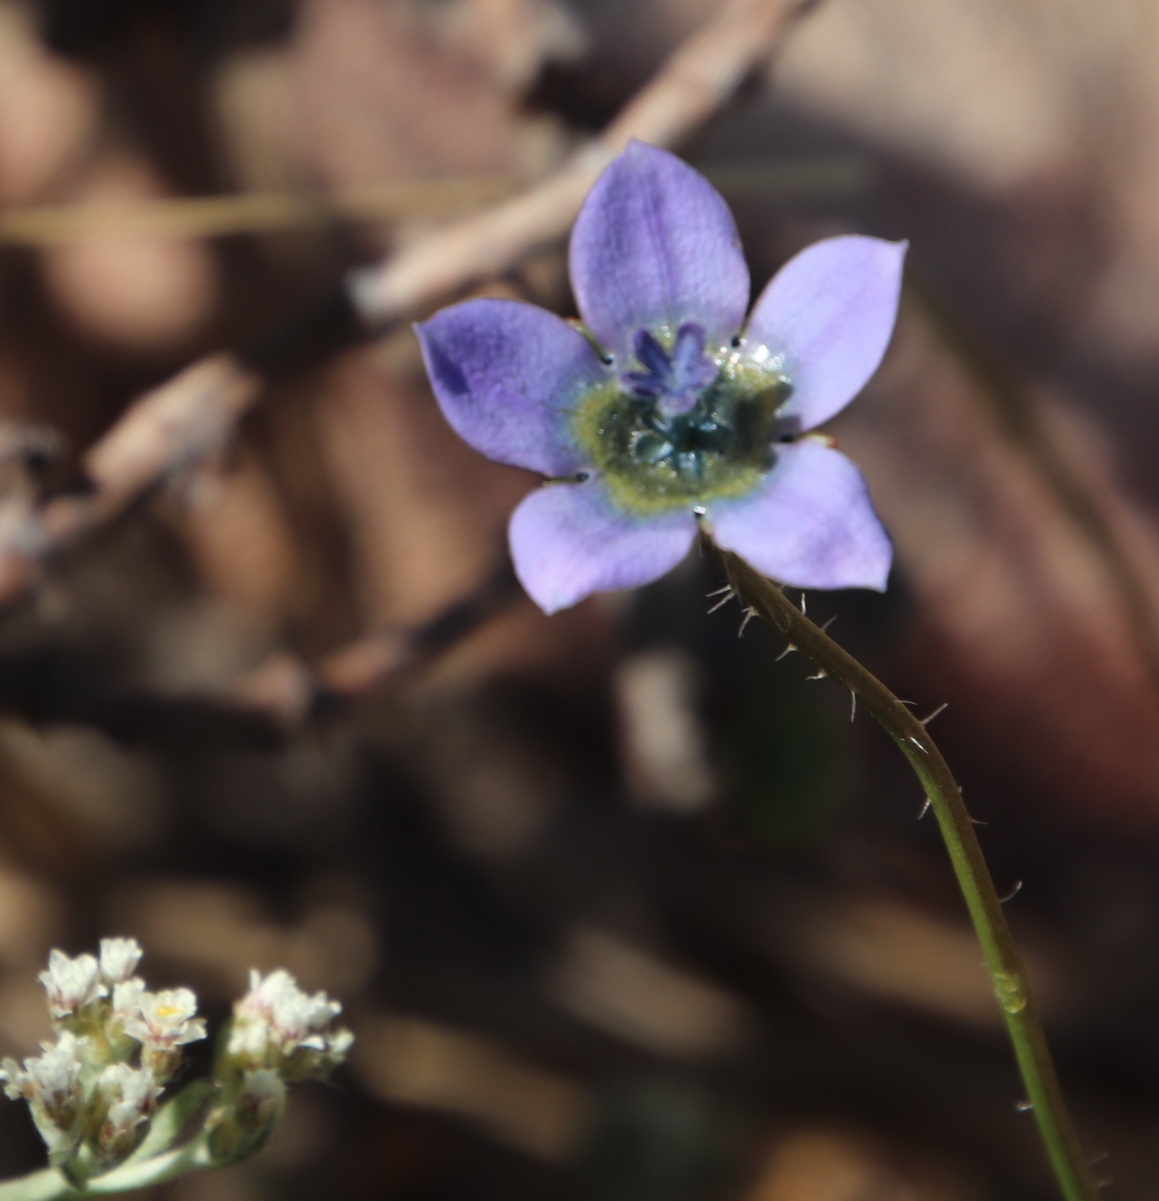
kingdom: Plantae
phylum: Tracheophyta
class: Magnoliopsida
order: Asterales
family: Campanulaceae
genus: Wahlenbergia
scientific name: Wahlenbergia capensis
